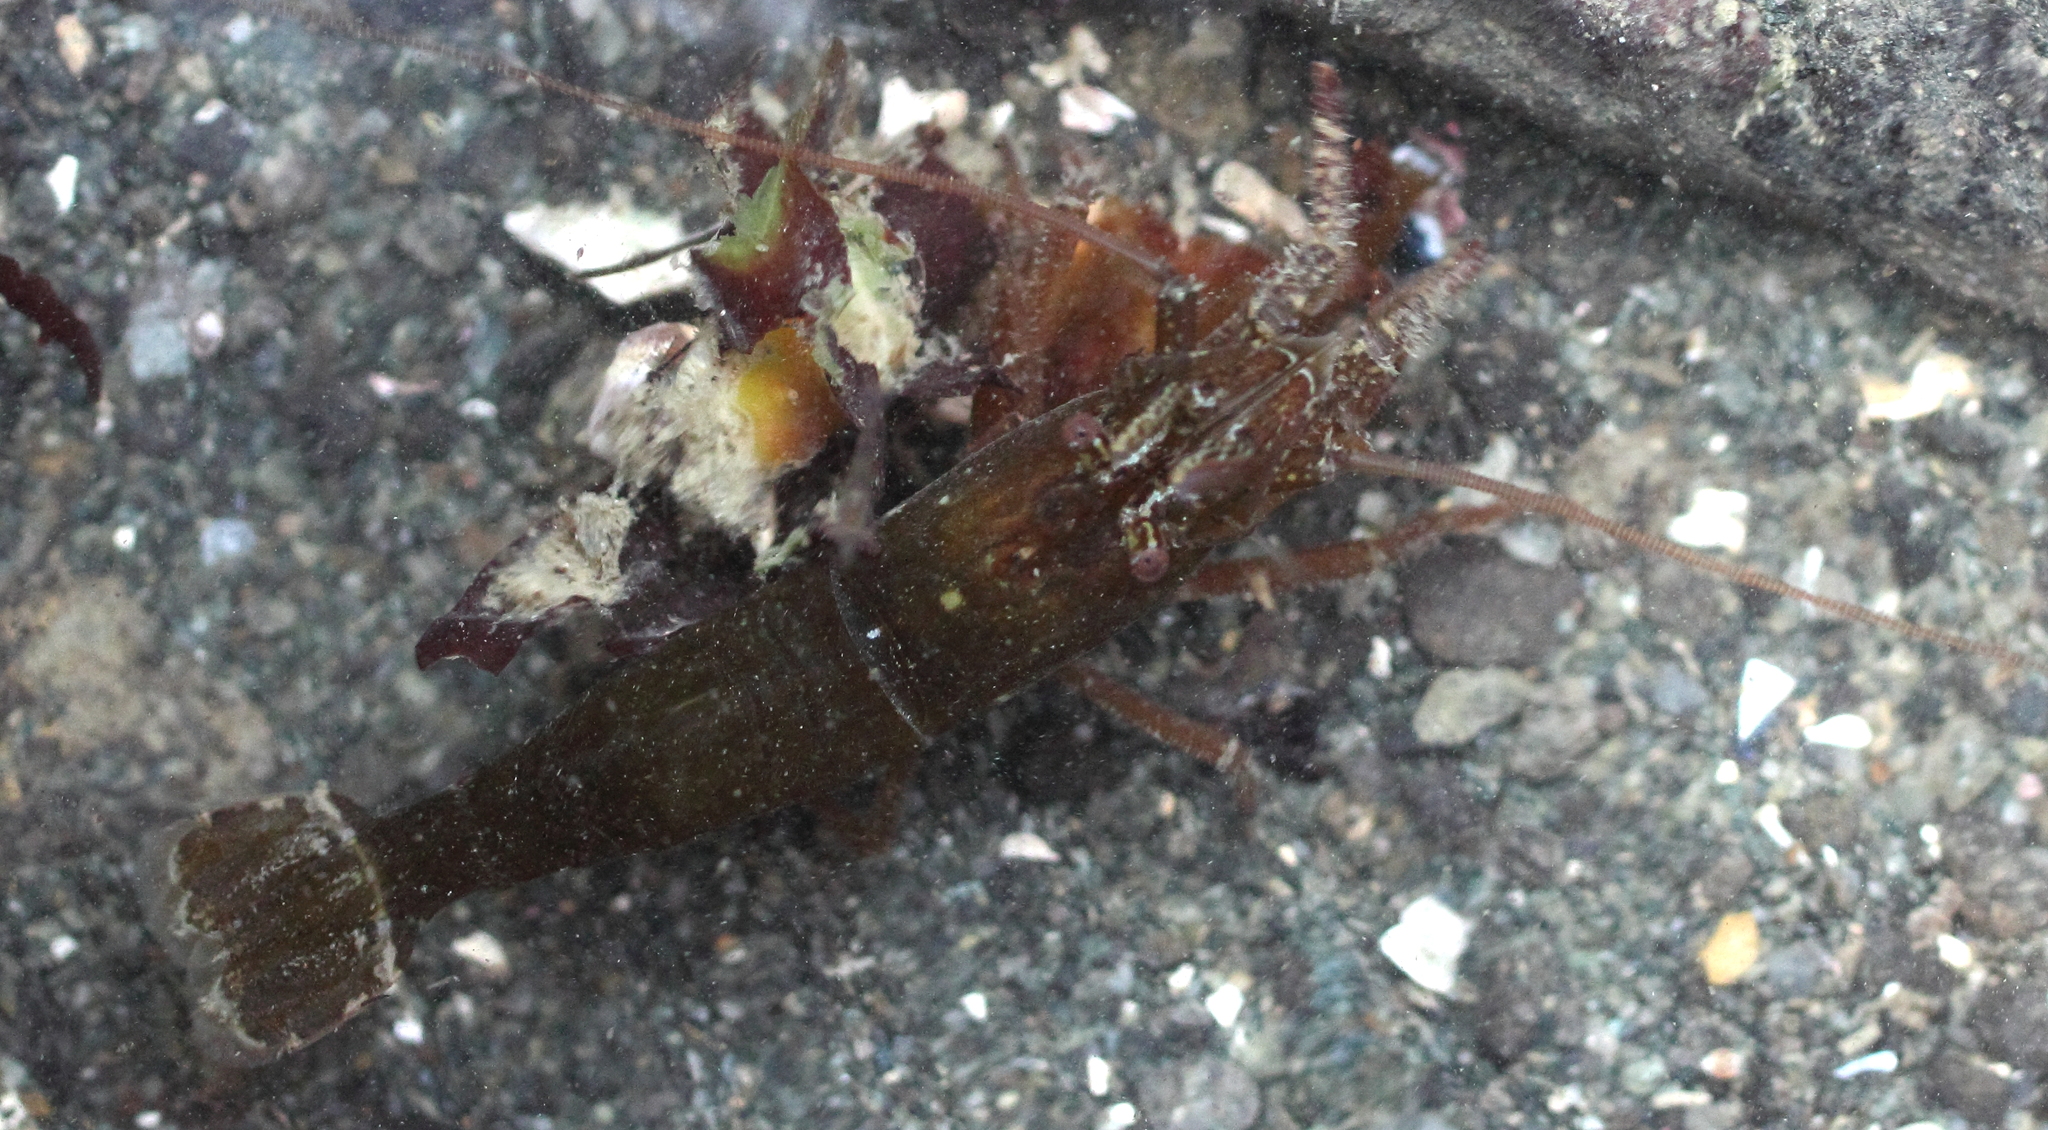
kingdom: Animalia
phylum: Arthropoda
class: Malacostraca
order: Decapoda
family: Thoridae
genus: Heptacarpus
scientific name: Heptacarpus brevirostris
